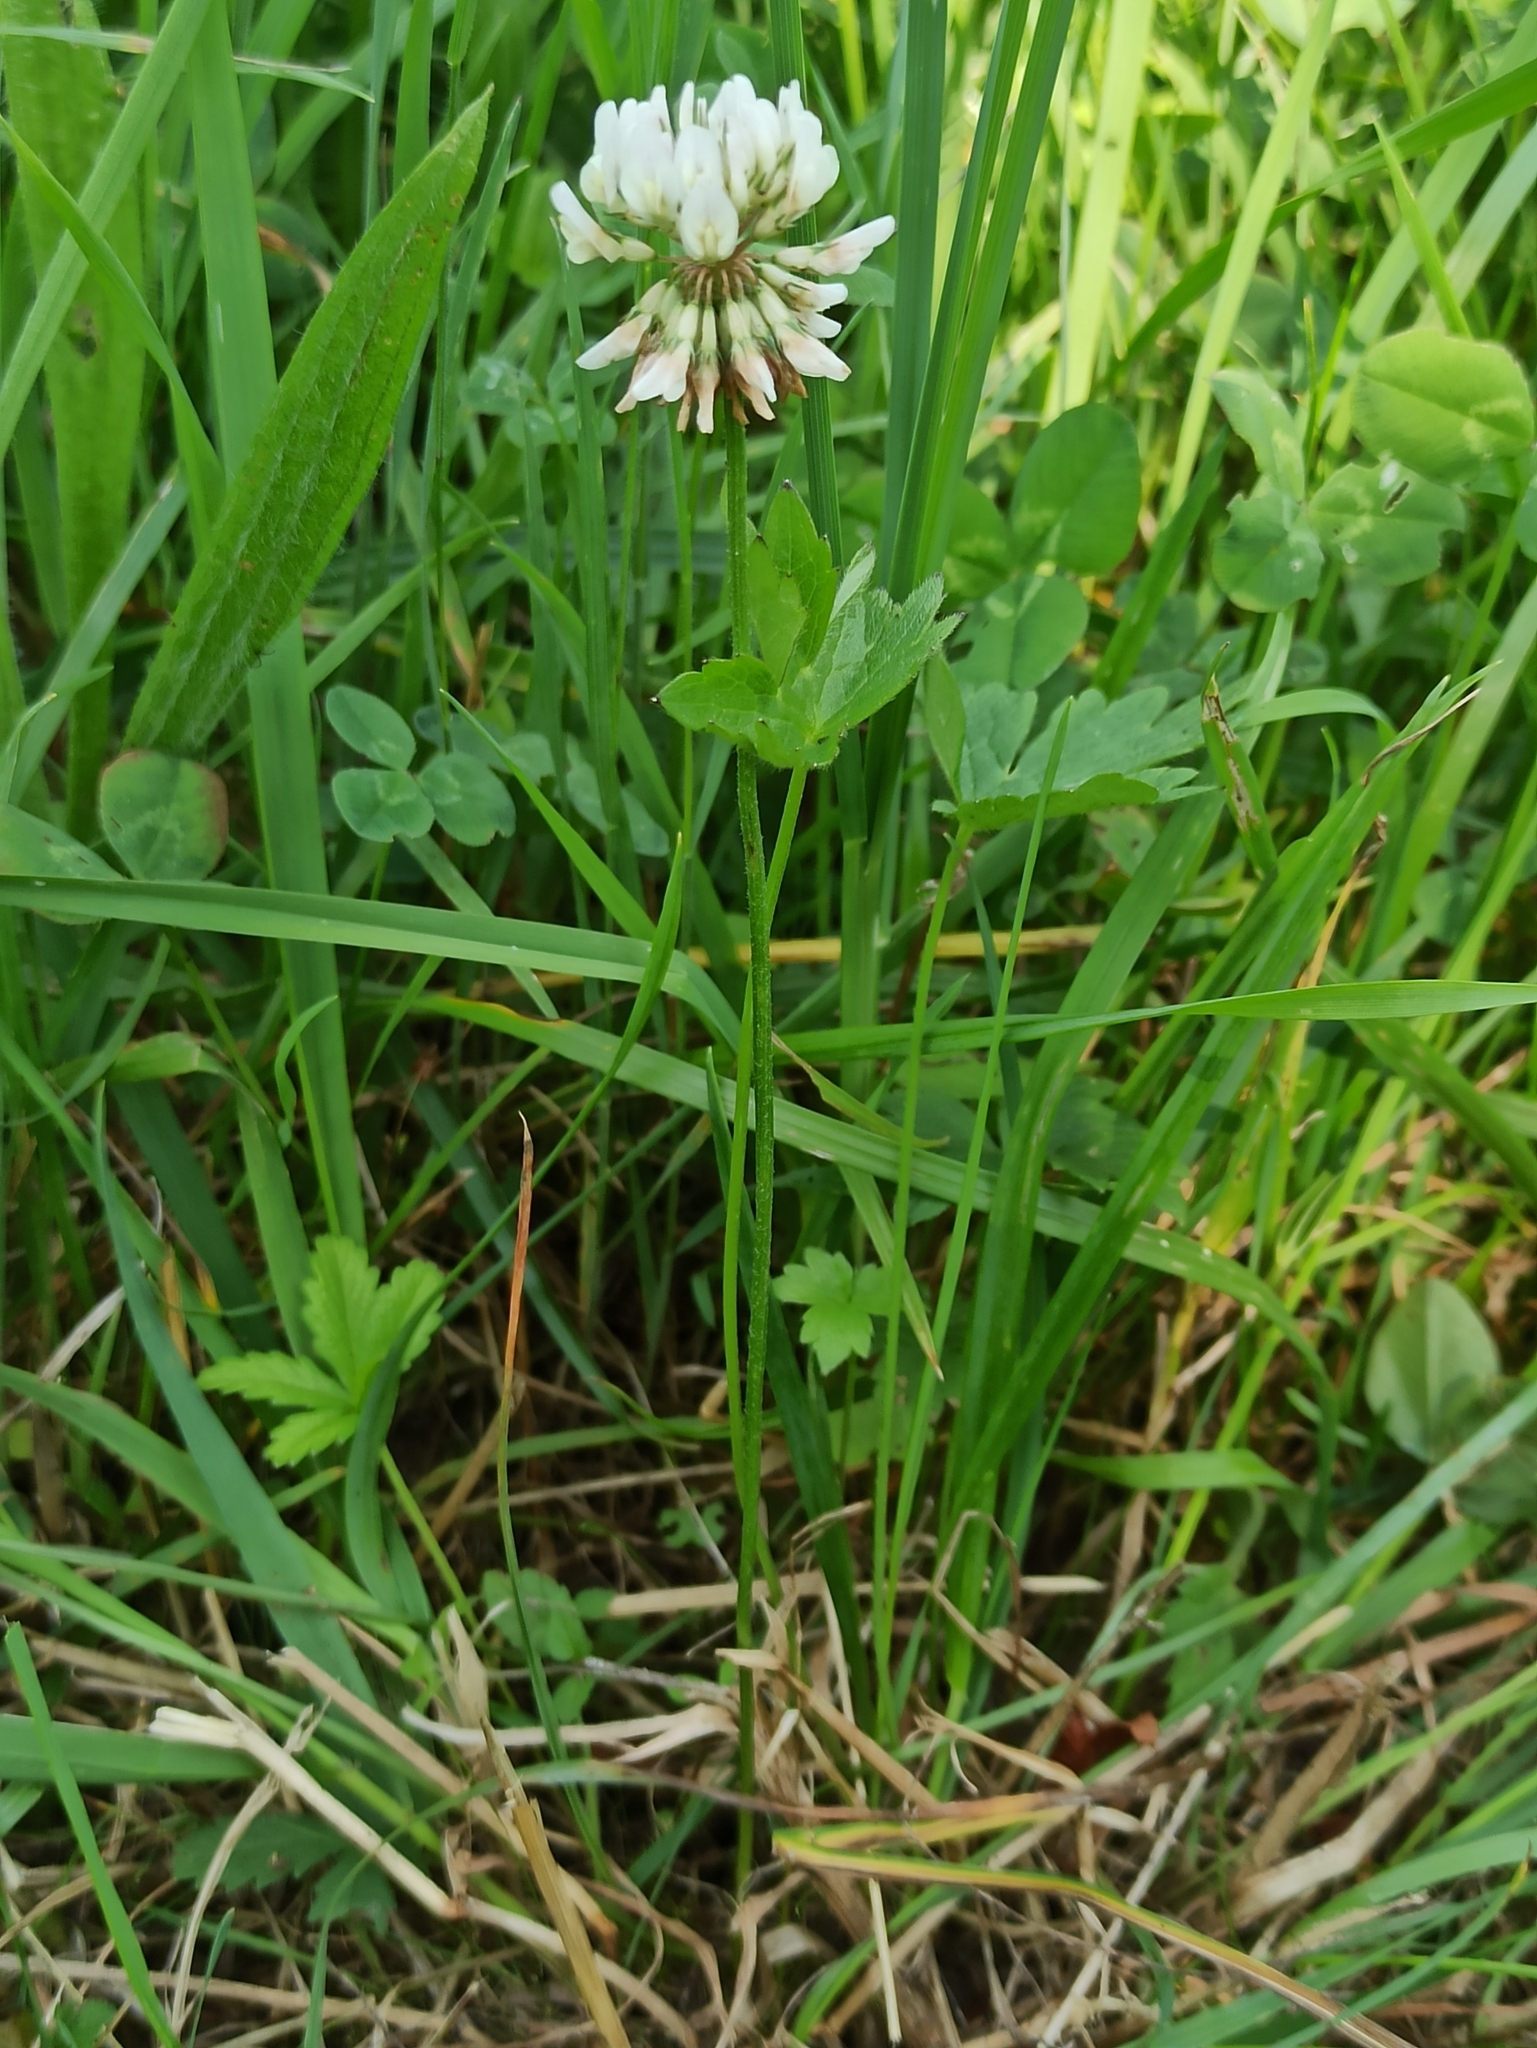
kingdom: Plantae
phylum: Tracheophyta
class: Magnoliopsida
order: Fabales
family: Fabaceae
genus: Trifolium
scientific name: Trifolium repens
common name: White clover
